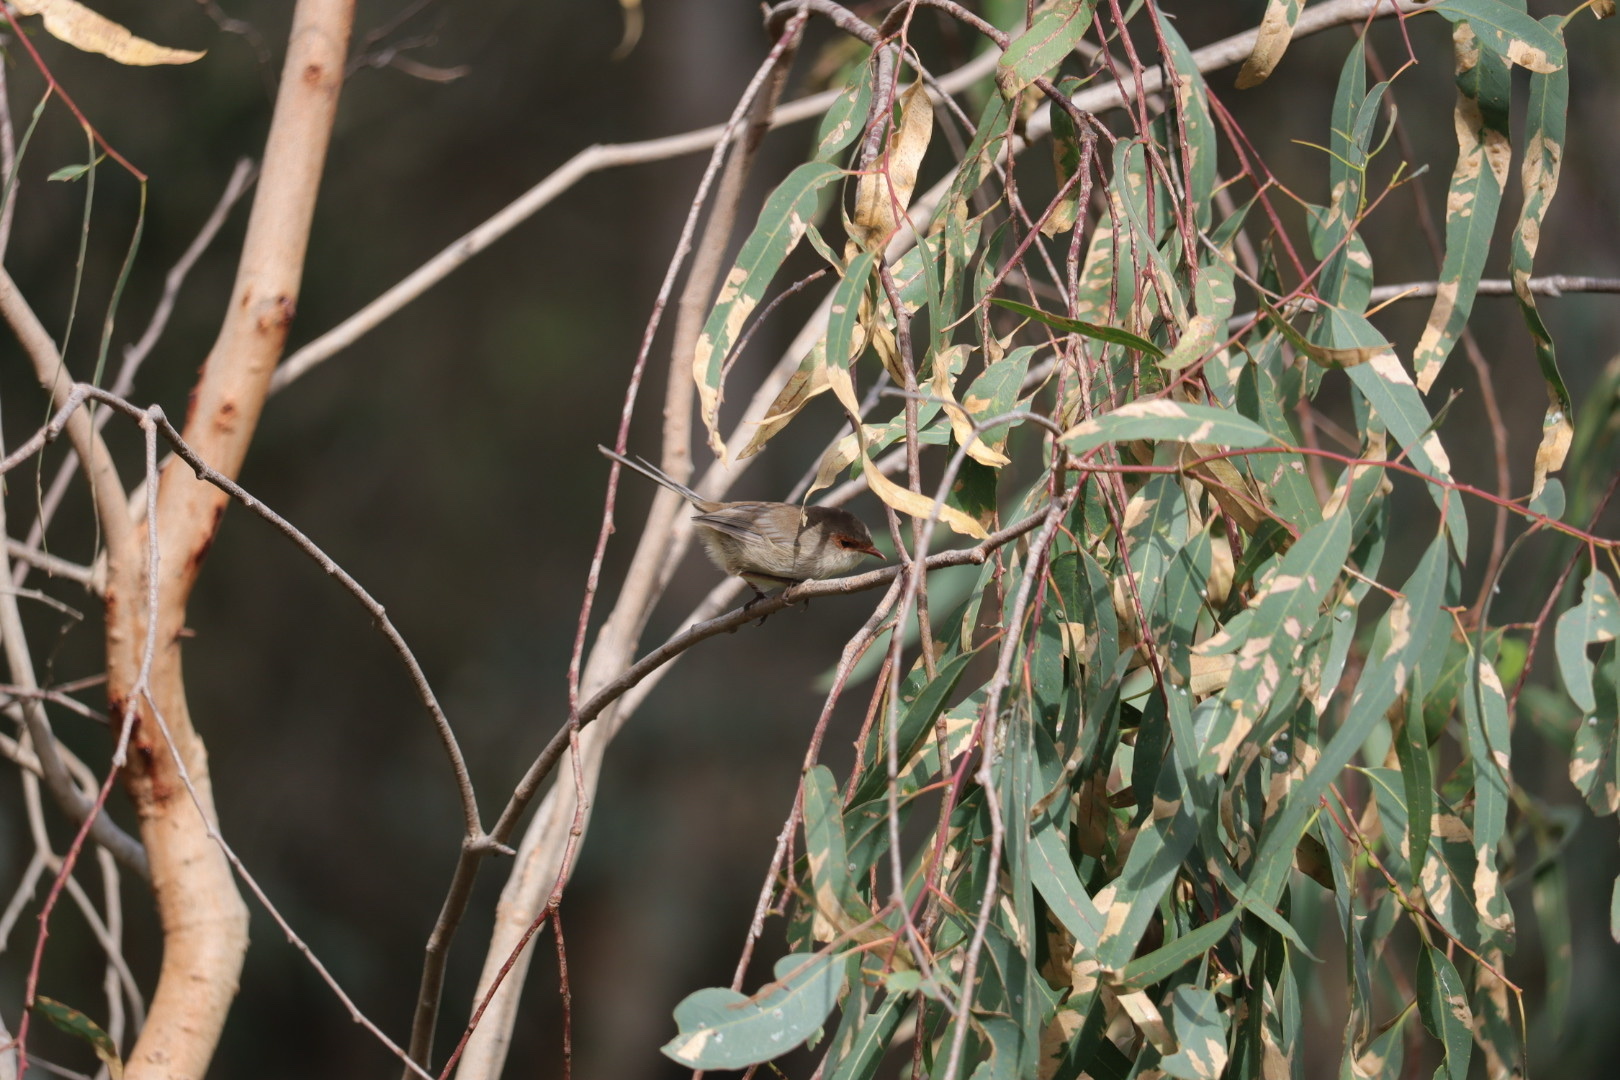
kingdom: Animalia
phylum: Chordata
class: Aves
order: Passeriformes
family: Maluridae
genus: Malurus
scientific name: Malurus cyaneus
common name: Superb fairywren
